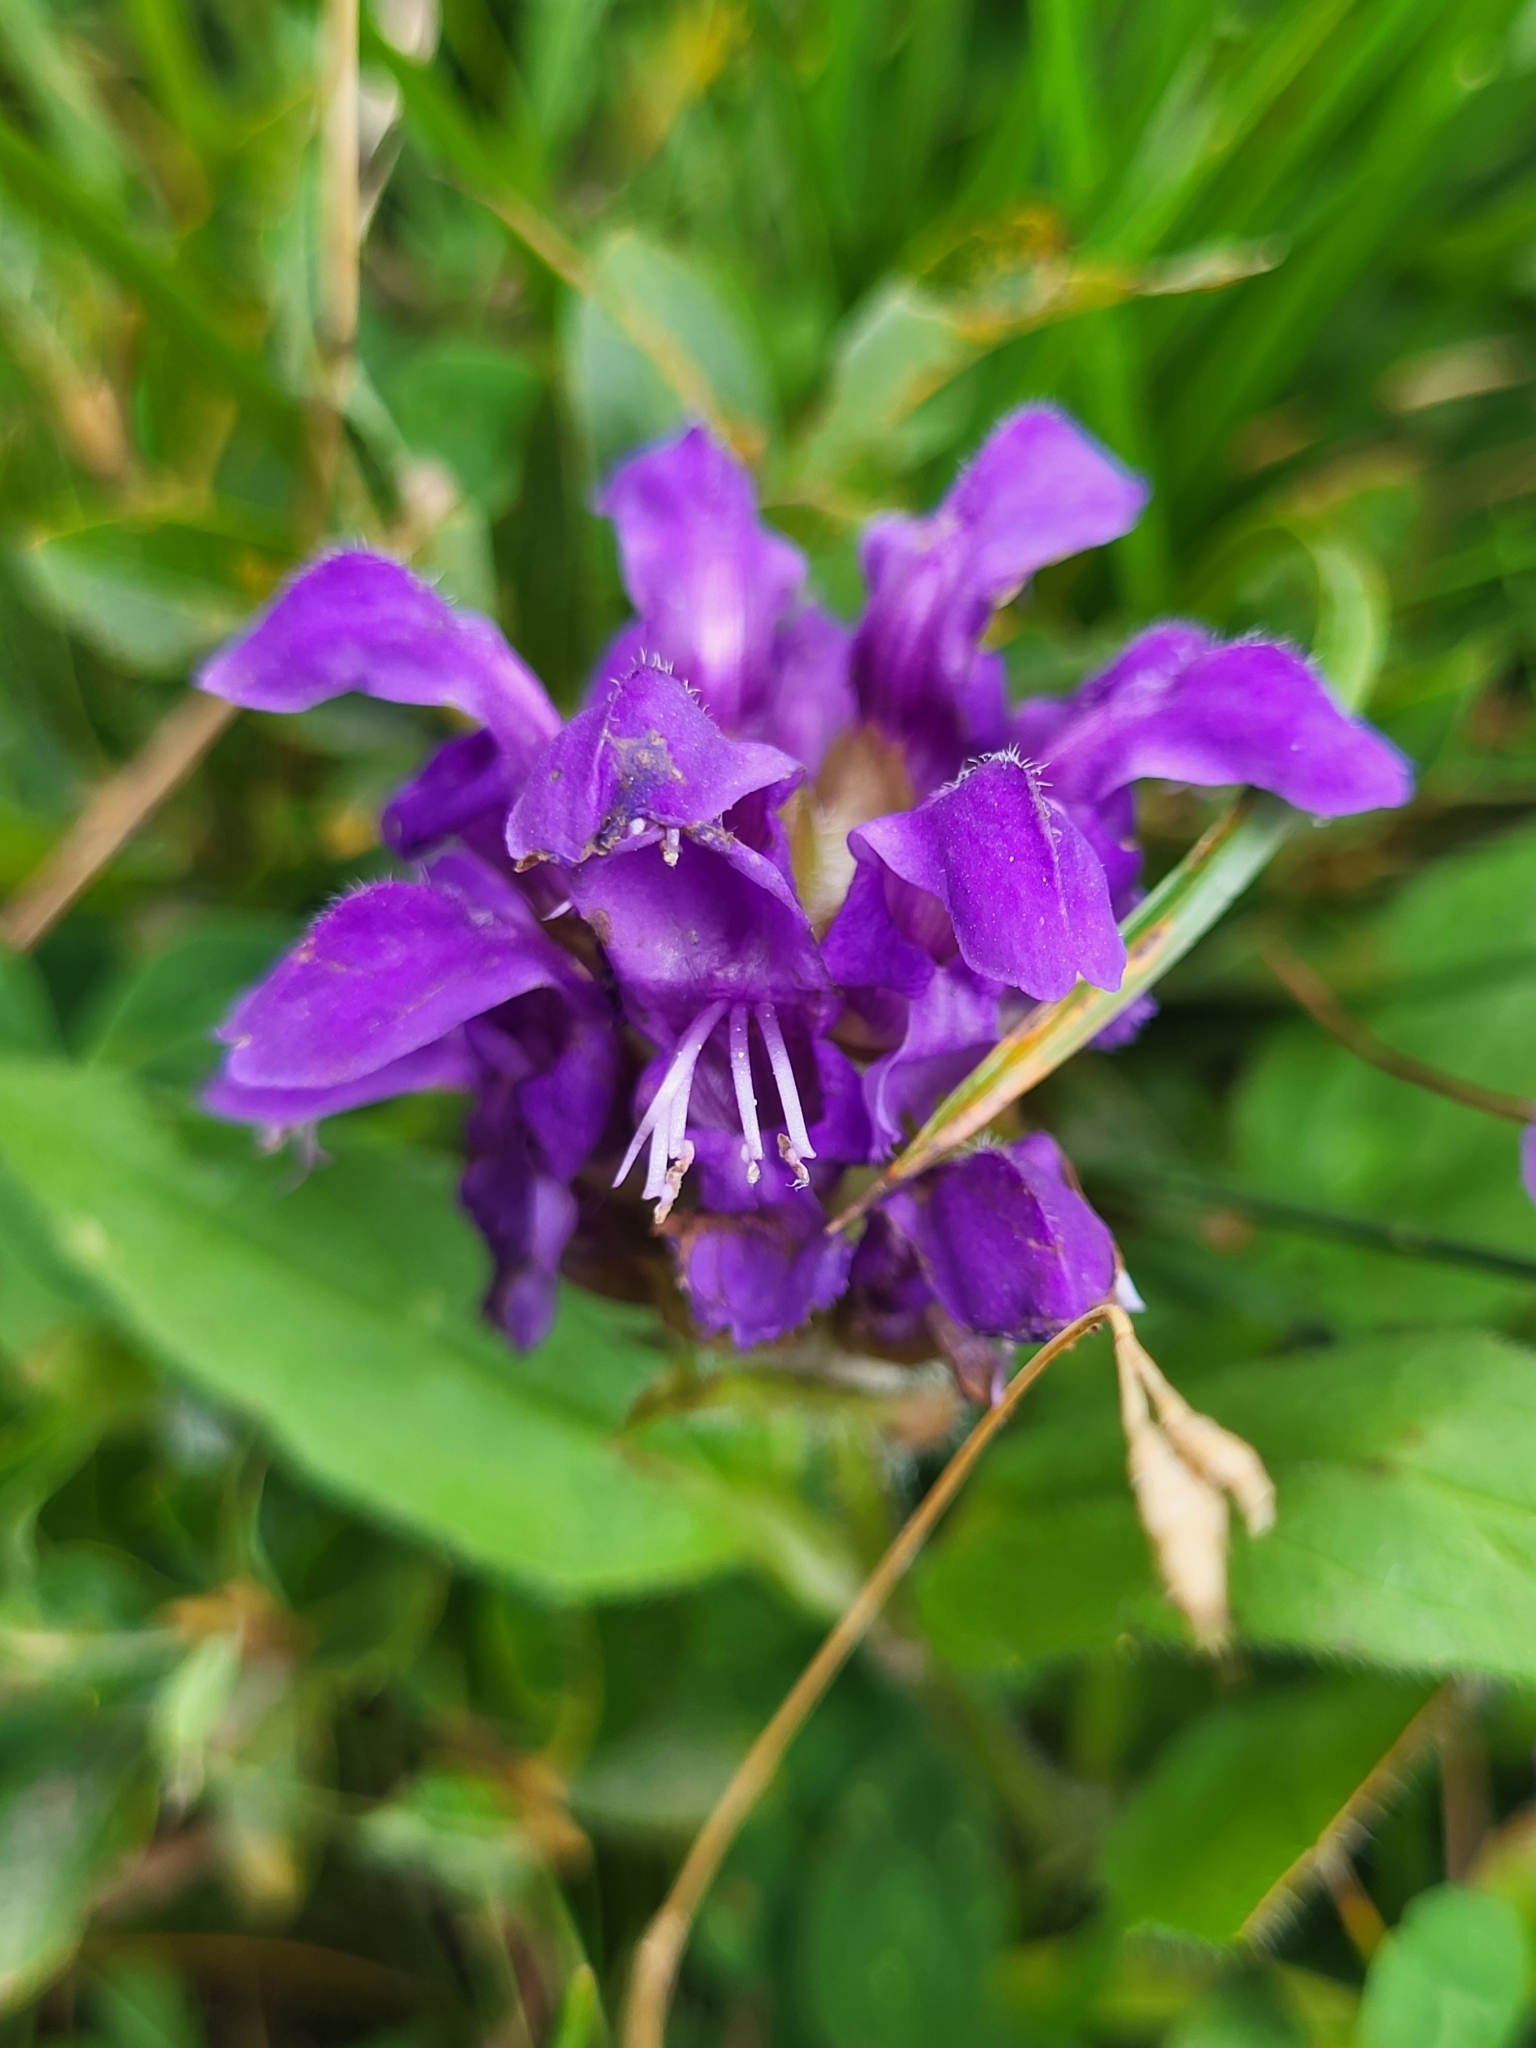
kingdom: Plantae
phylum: Tracheophyta
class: Magnoliopsida
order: Lamiales
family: Lamiaceae
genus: Prunella
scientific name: Prunella grandiflora
